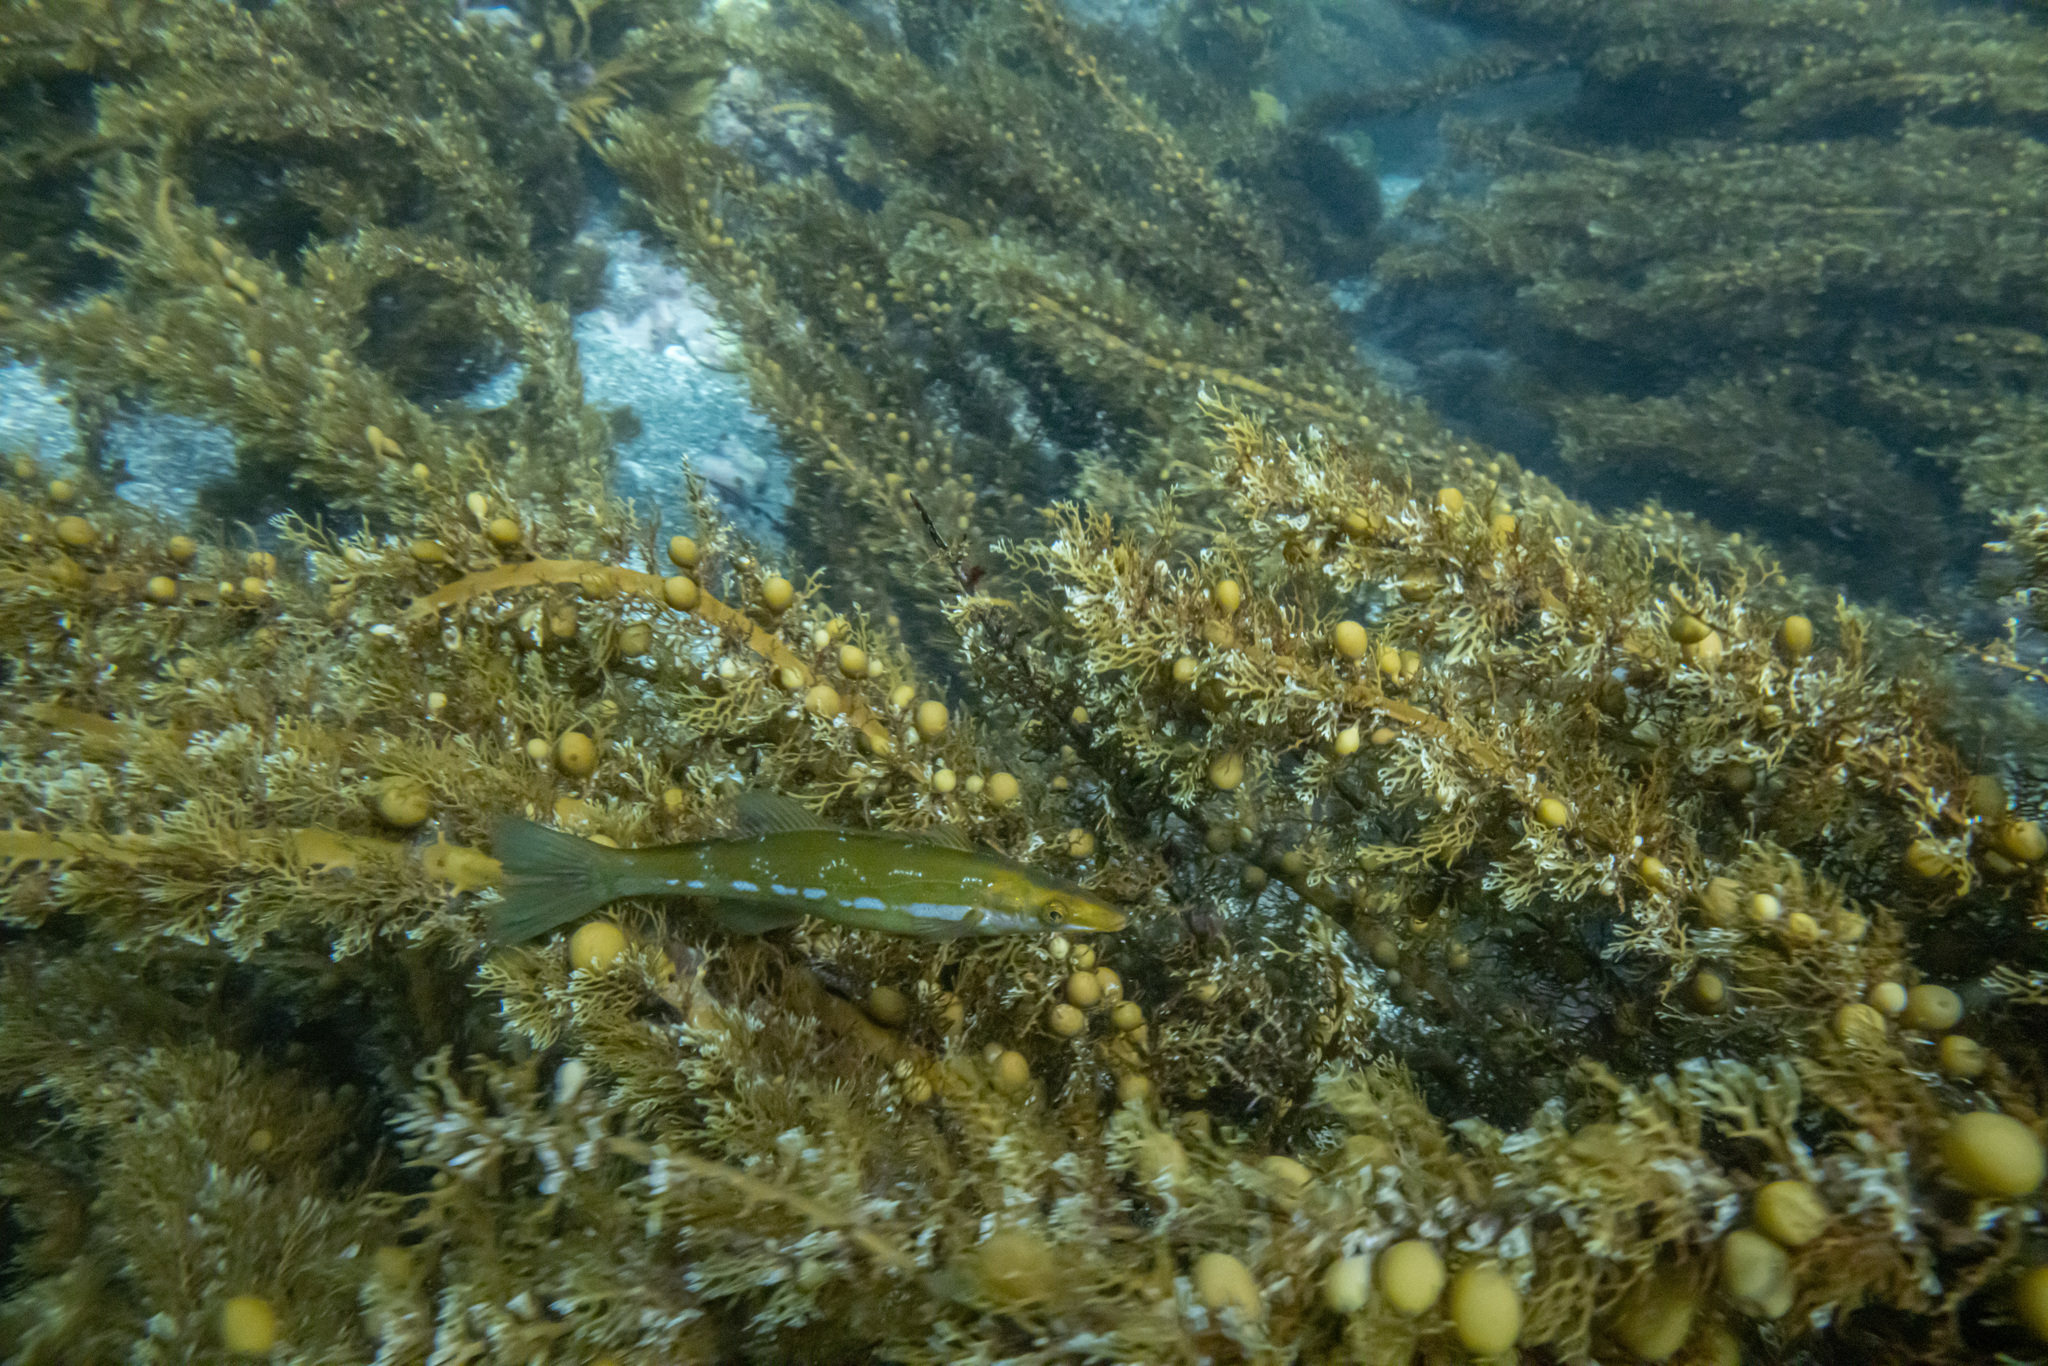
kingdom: Animalia
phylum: Chordata
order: Perciformes
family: Odacidae
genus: Odax
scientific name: Odax pullus
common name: Butterfish
